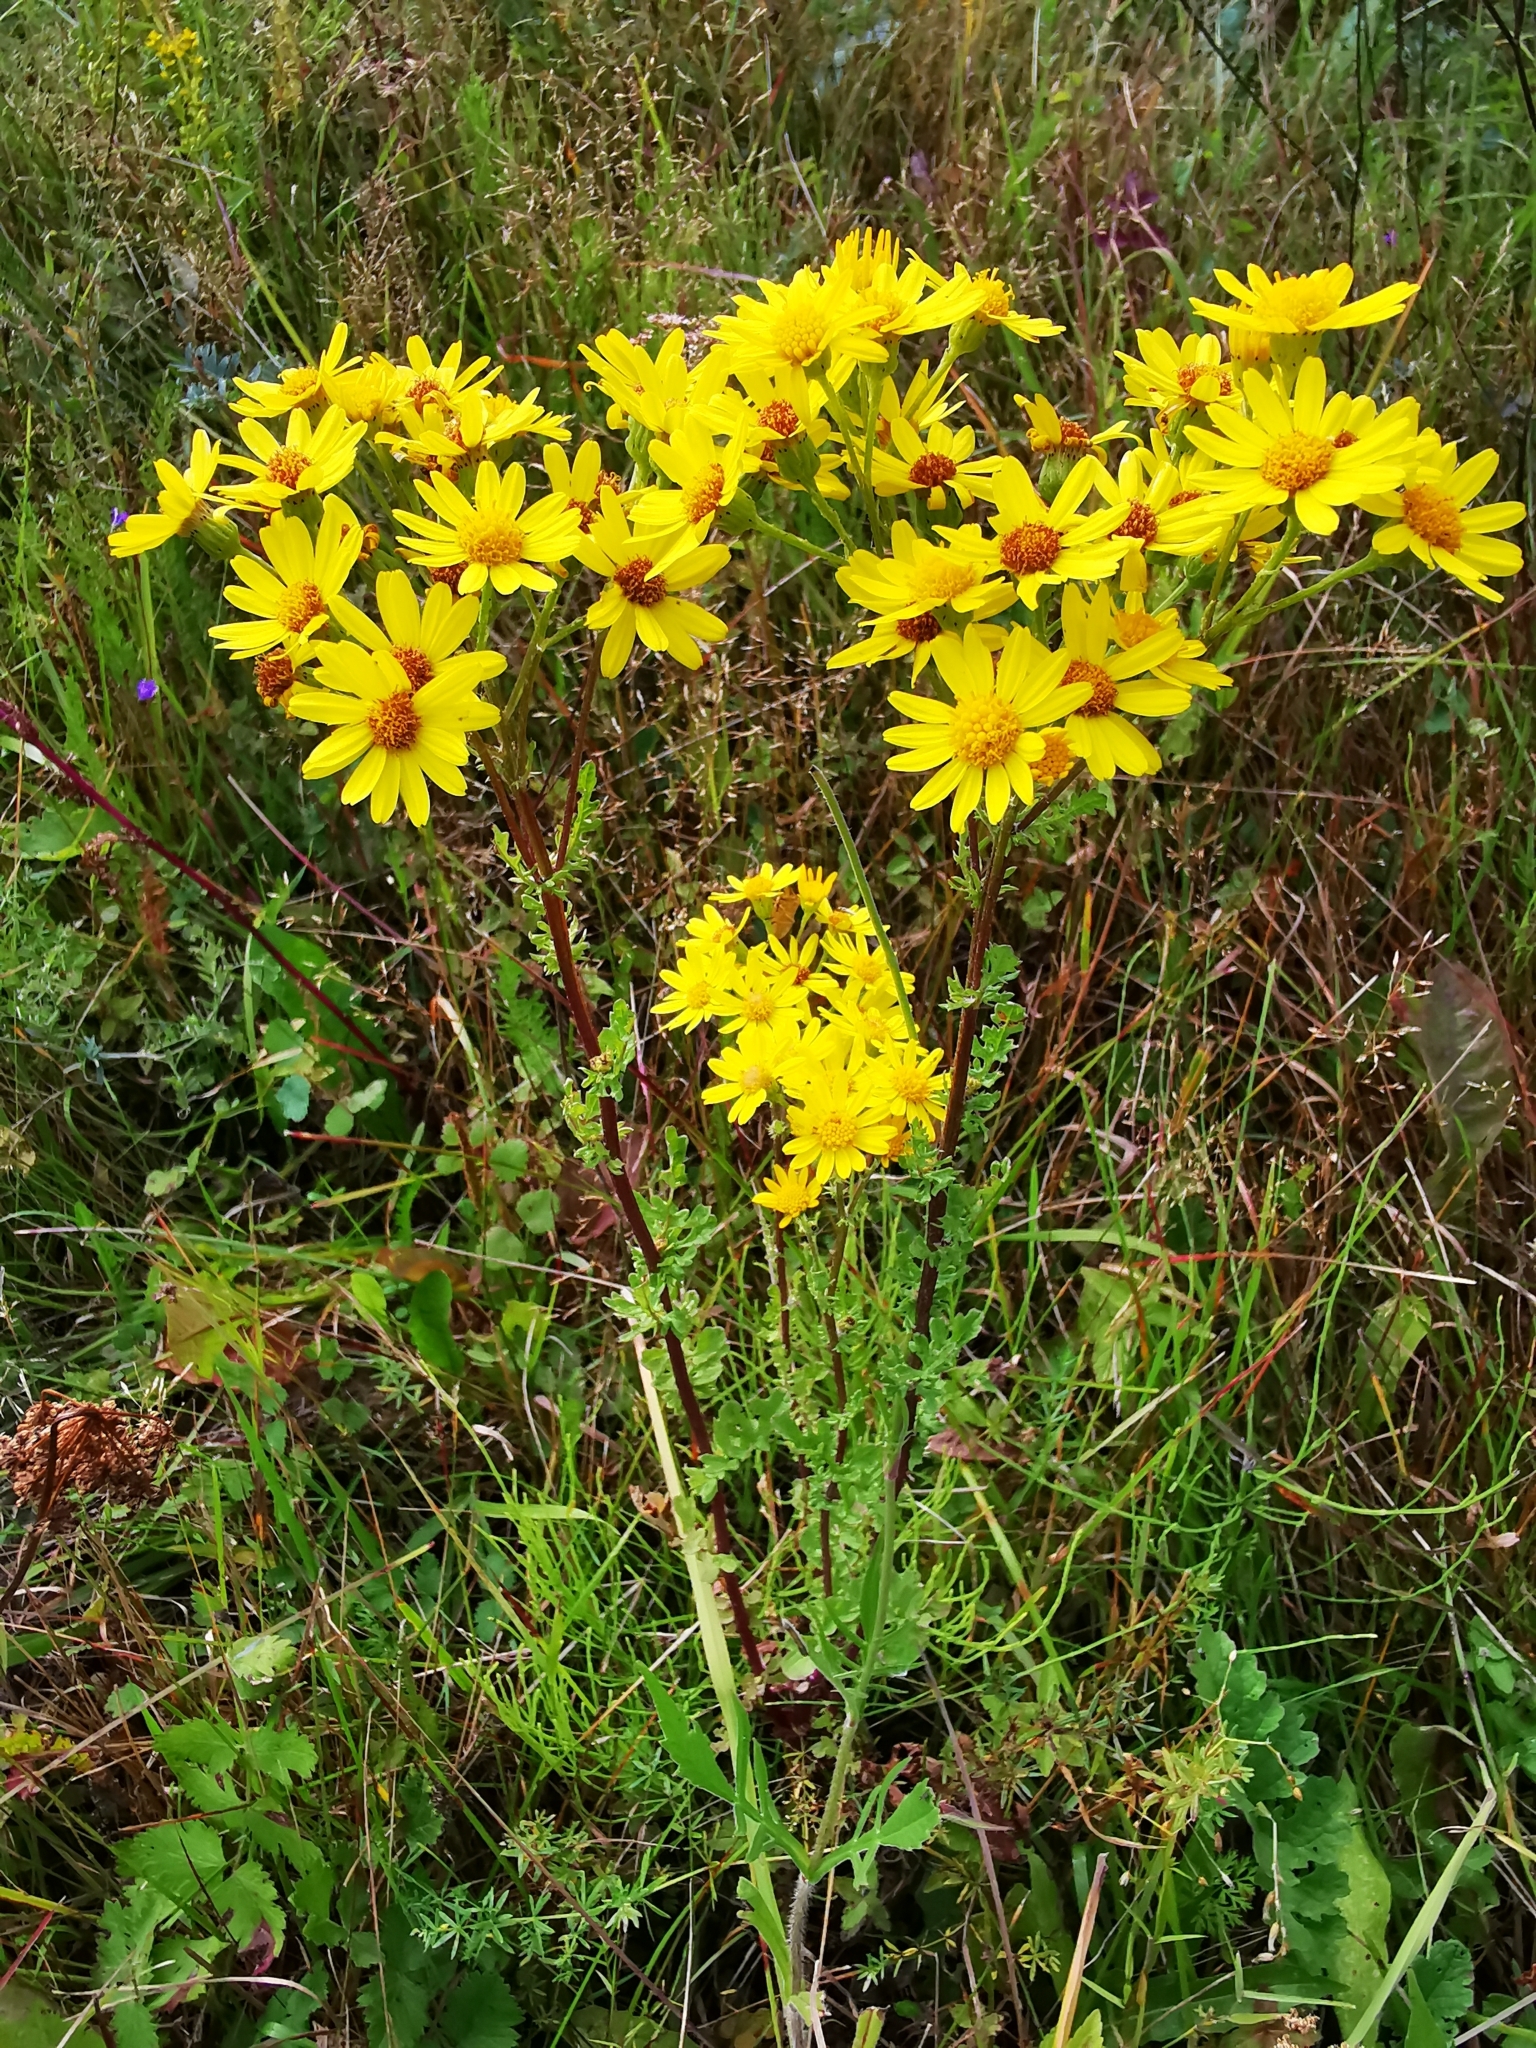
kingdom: Plantae
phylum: Tracheophyta
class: Magnoliopsida
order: Asterales
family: Asteraceae
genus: Jacobaea
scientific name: Jacobaea vulgaris
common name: Stinking willie
